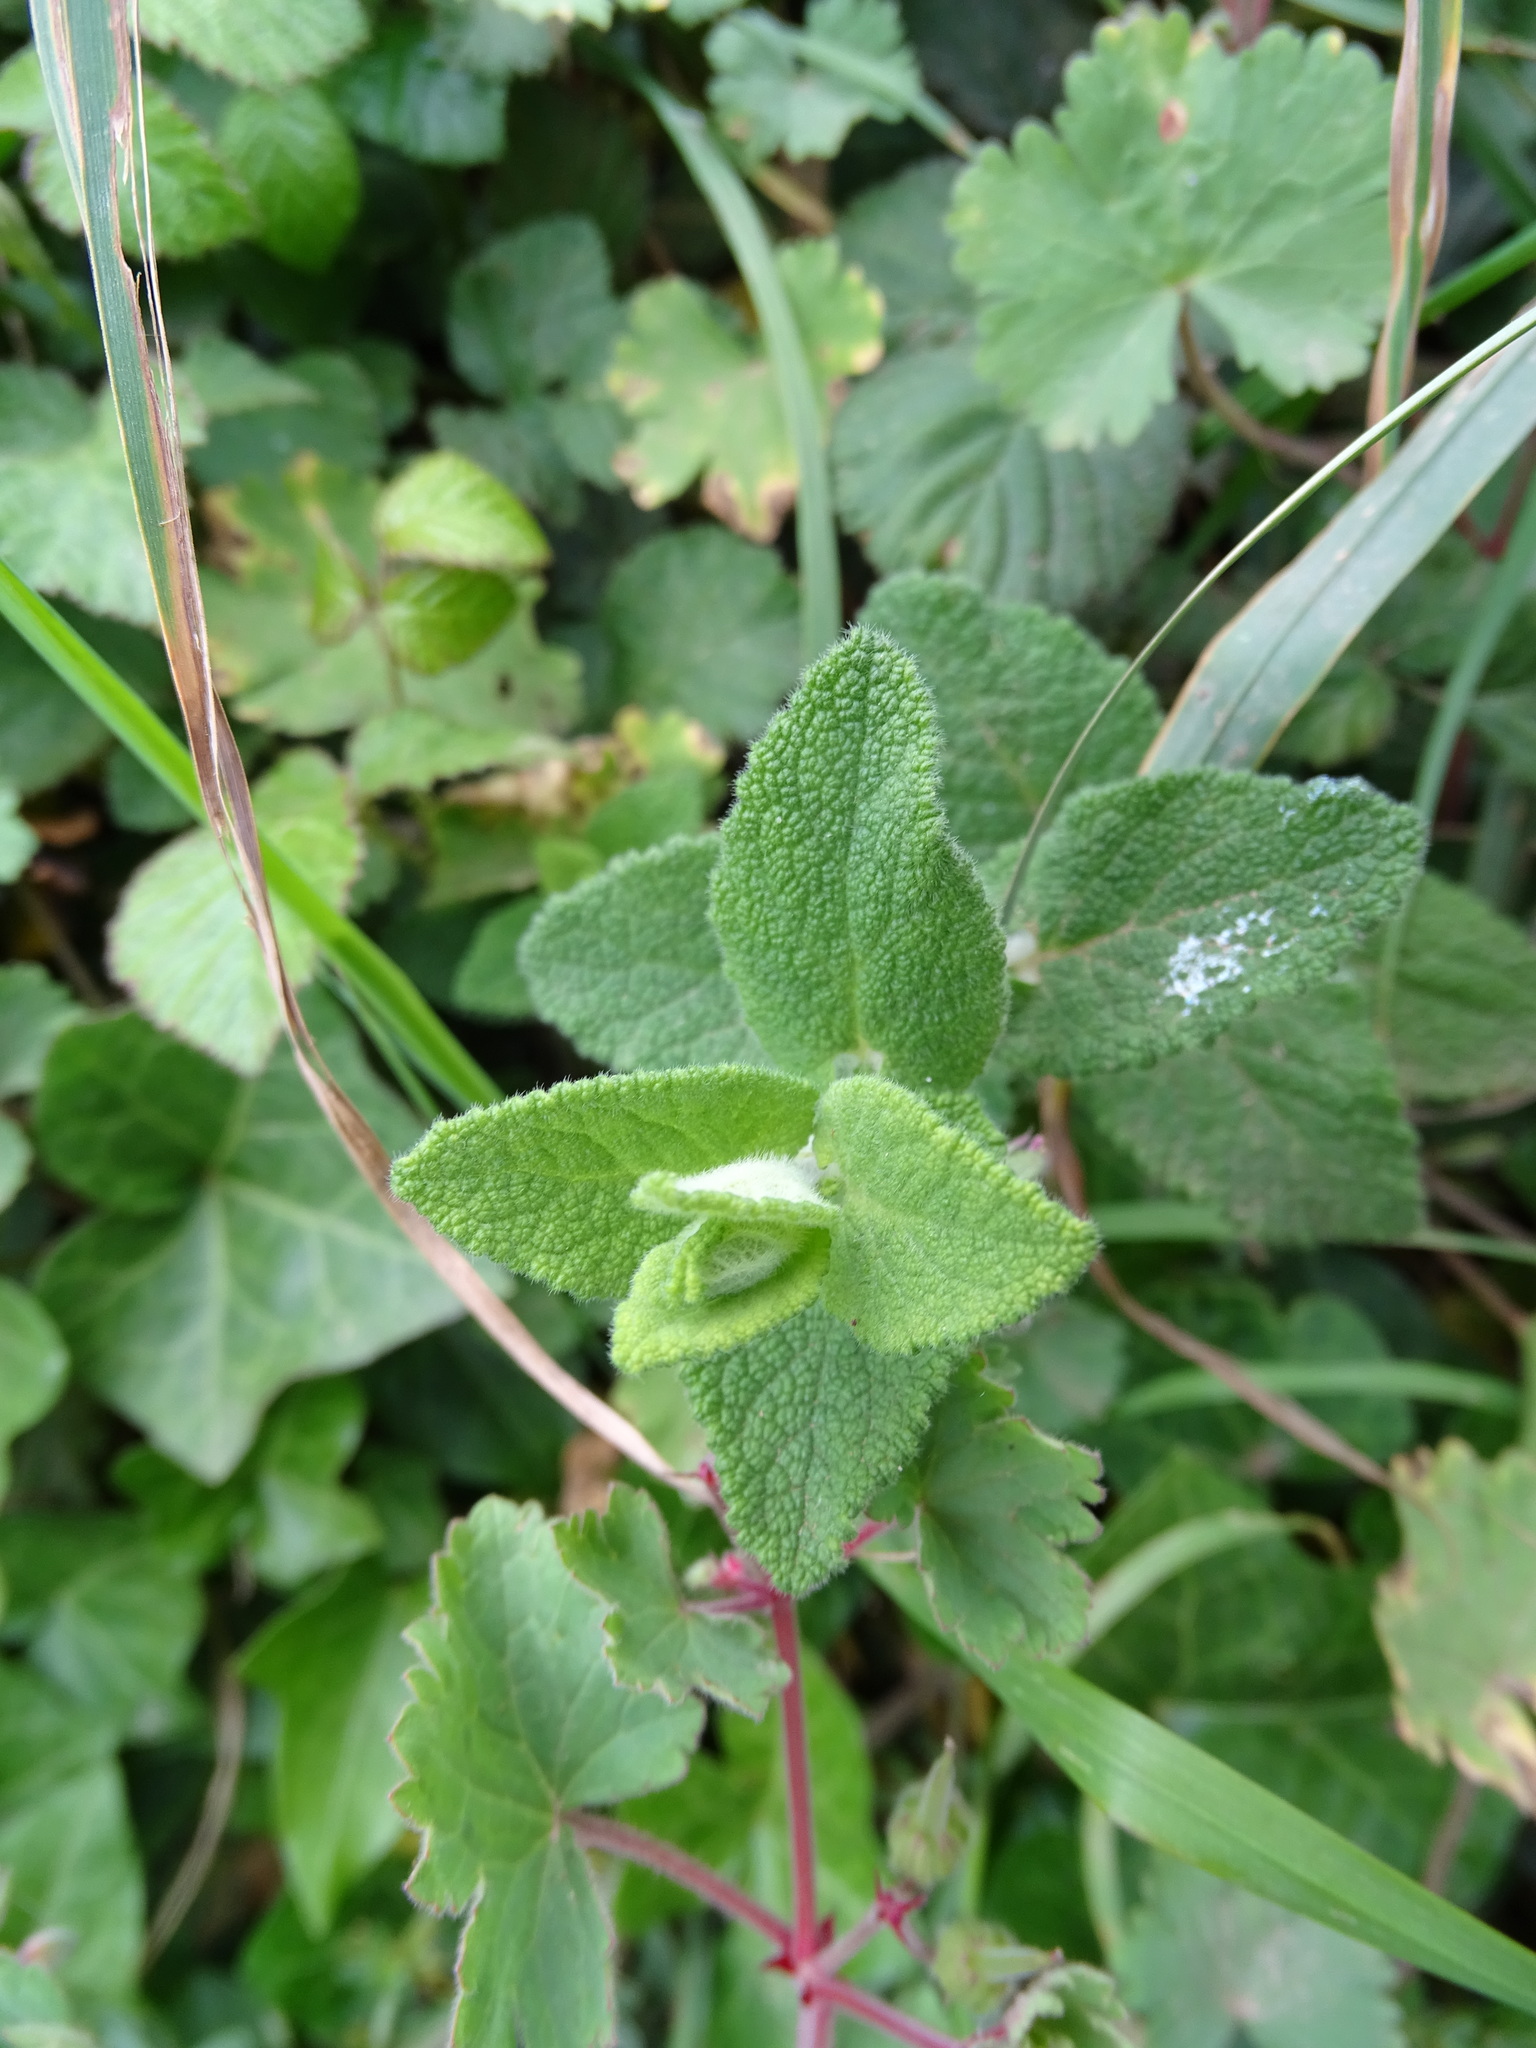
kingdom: Plantae
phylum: Tracheophyta
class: Magnoliopsida
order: Lamiales
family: Lamiaceae
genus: Teucrium
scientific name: Teucrium scorodonia
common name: Woodland germander
